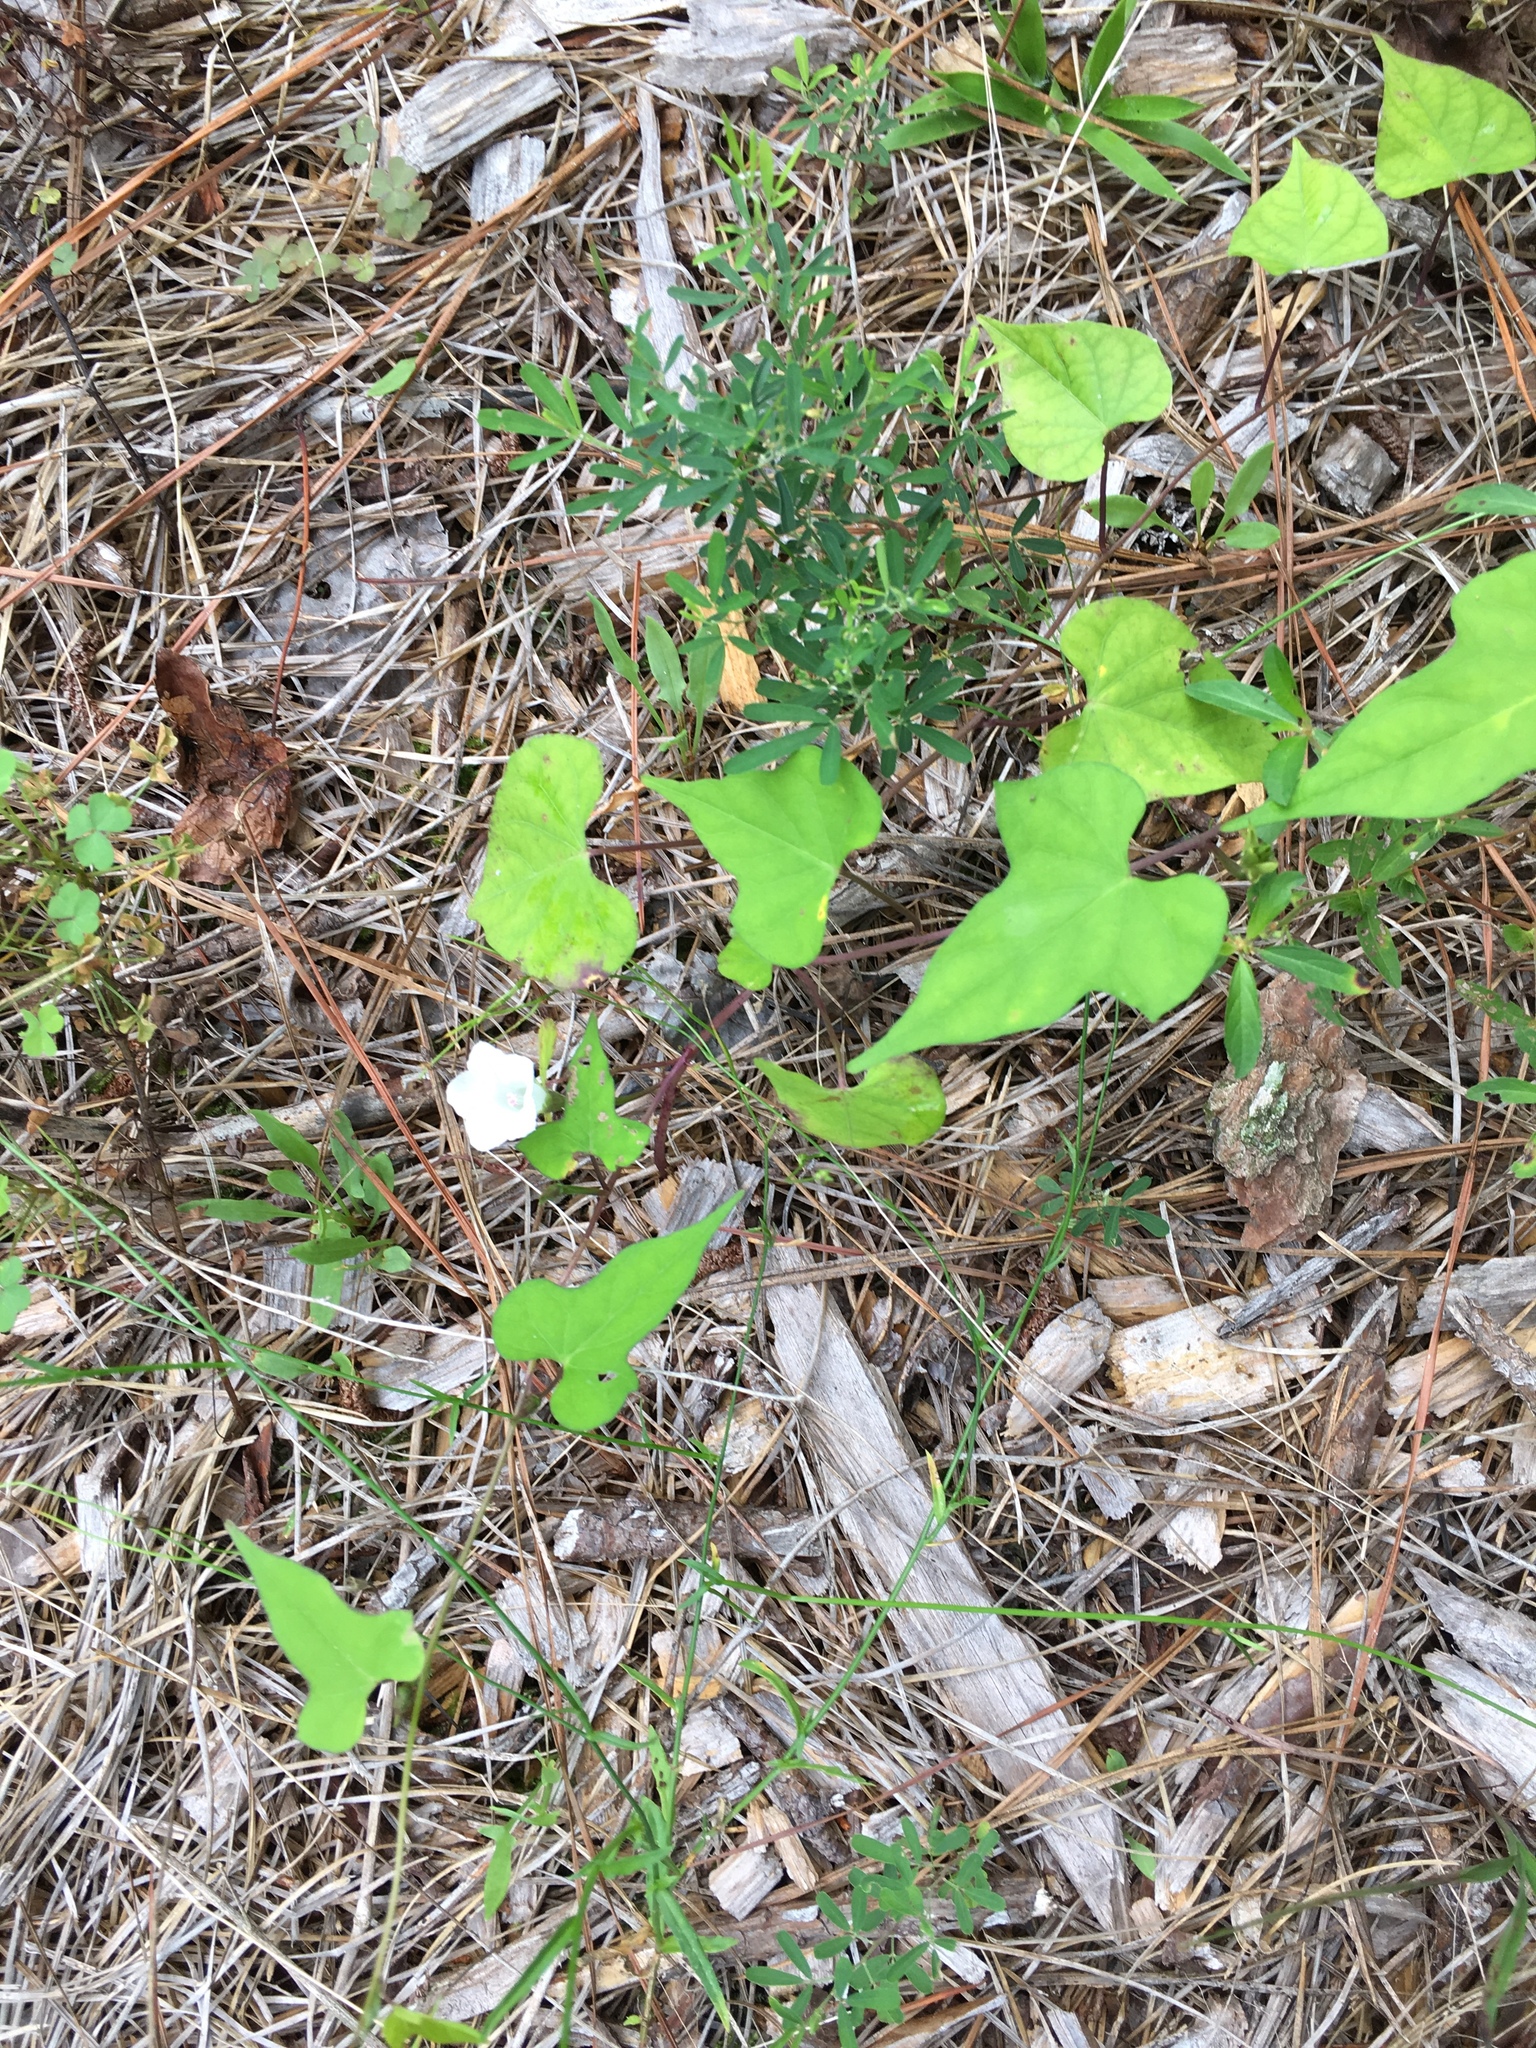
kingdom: Plantae
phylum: Tracheophyta
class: Magnoliopsida
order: Solanales
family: Convolvulaceae
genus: Ipomoea
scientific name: Ipomoea lacunosa
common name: White morning-glory
